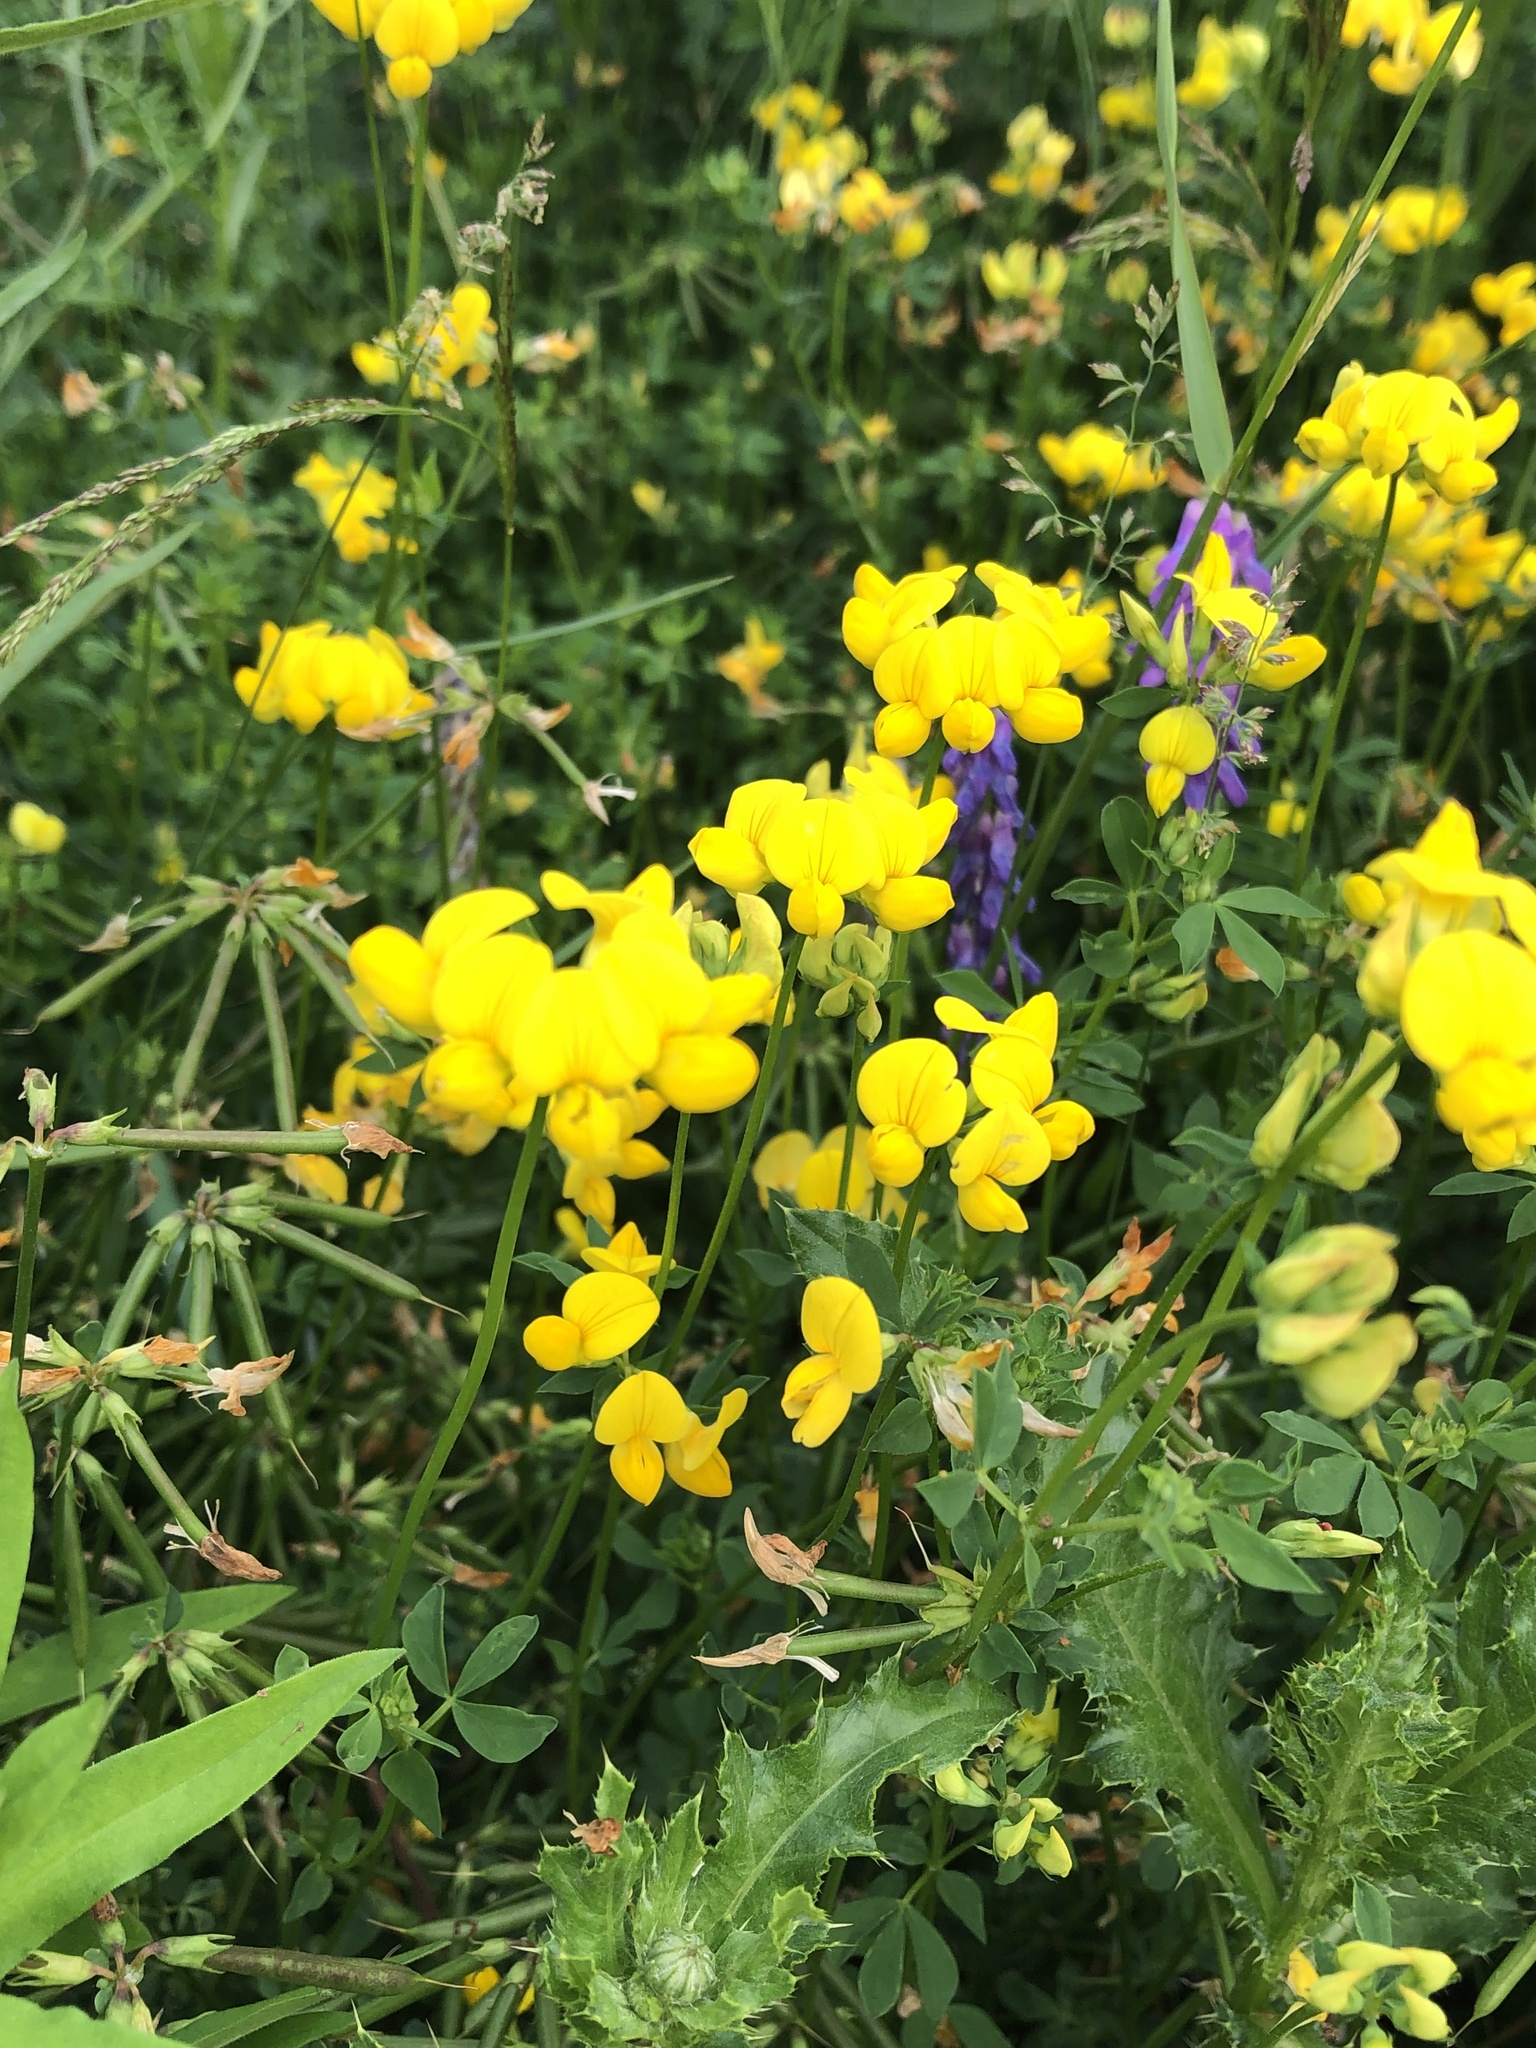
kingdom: Plantae
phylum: Tracheophyta
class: Magnoliopsida
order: Fabales
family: Fabaceae
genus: Lotus
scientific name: Lotus corniculatus
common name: Common bird's-foot-trefoil
